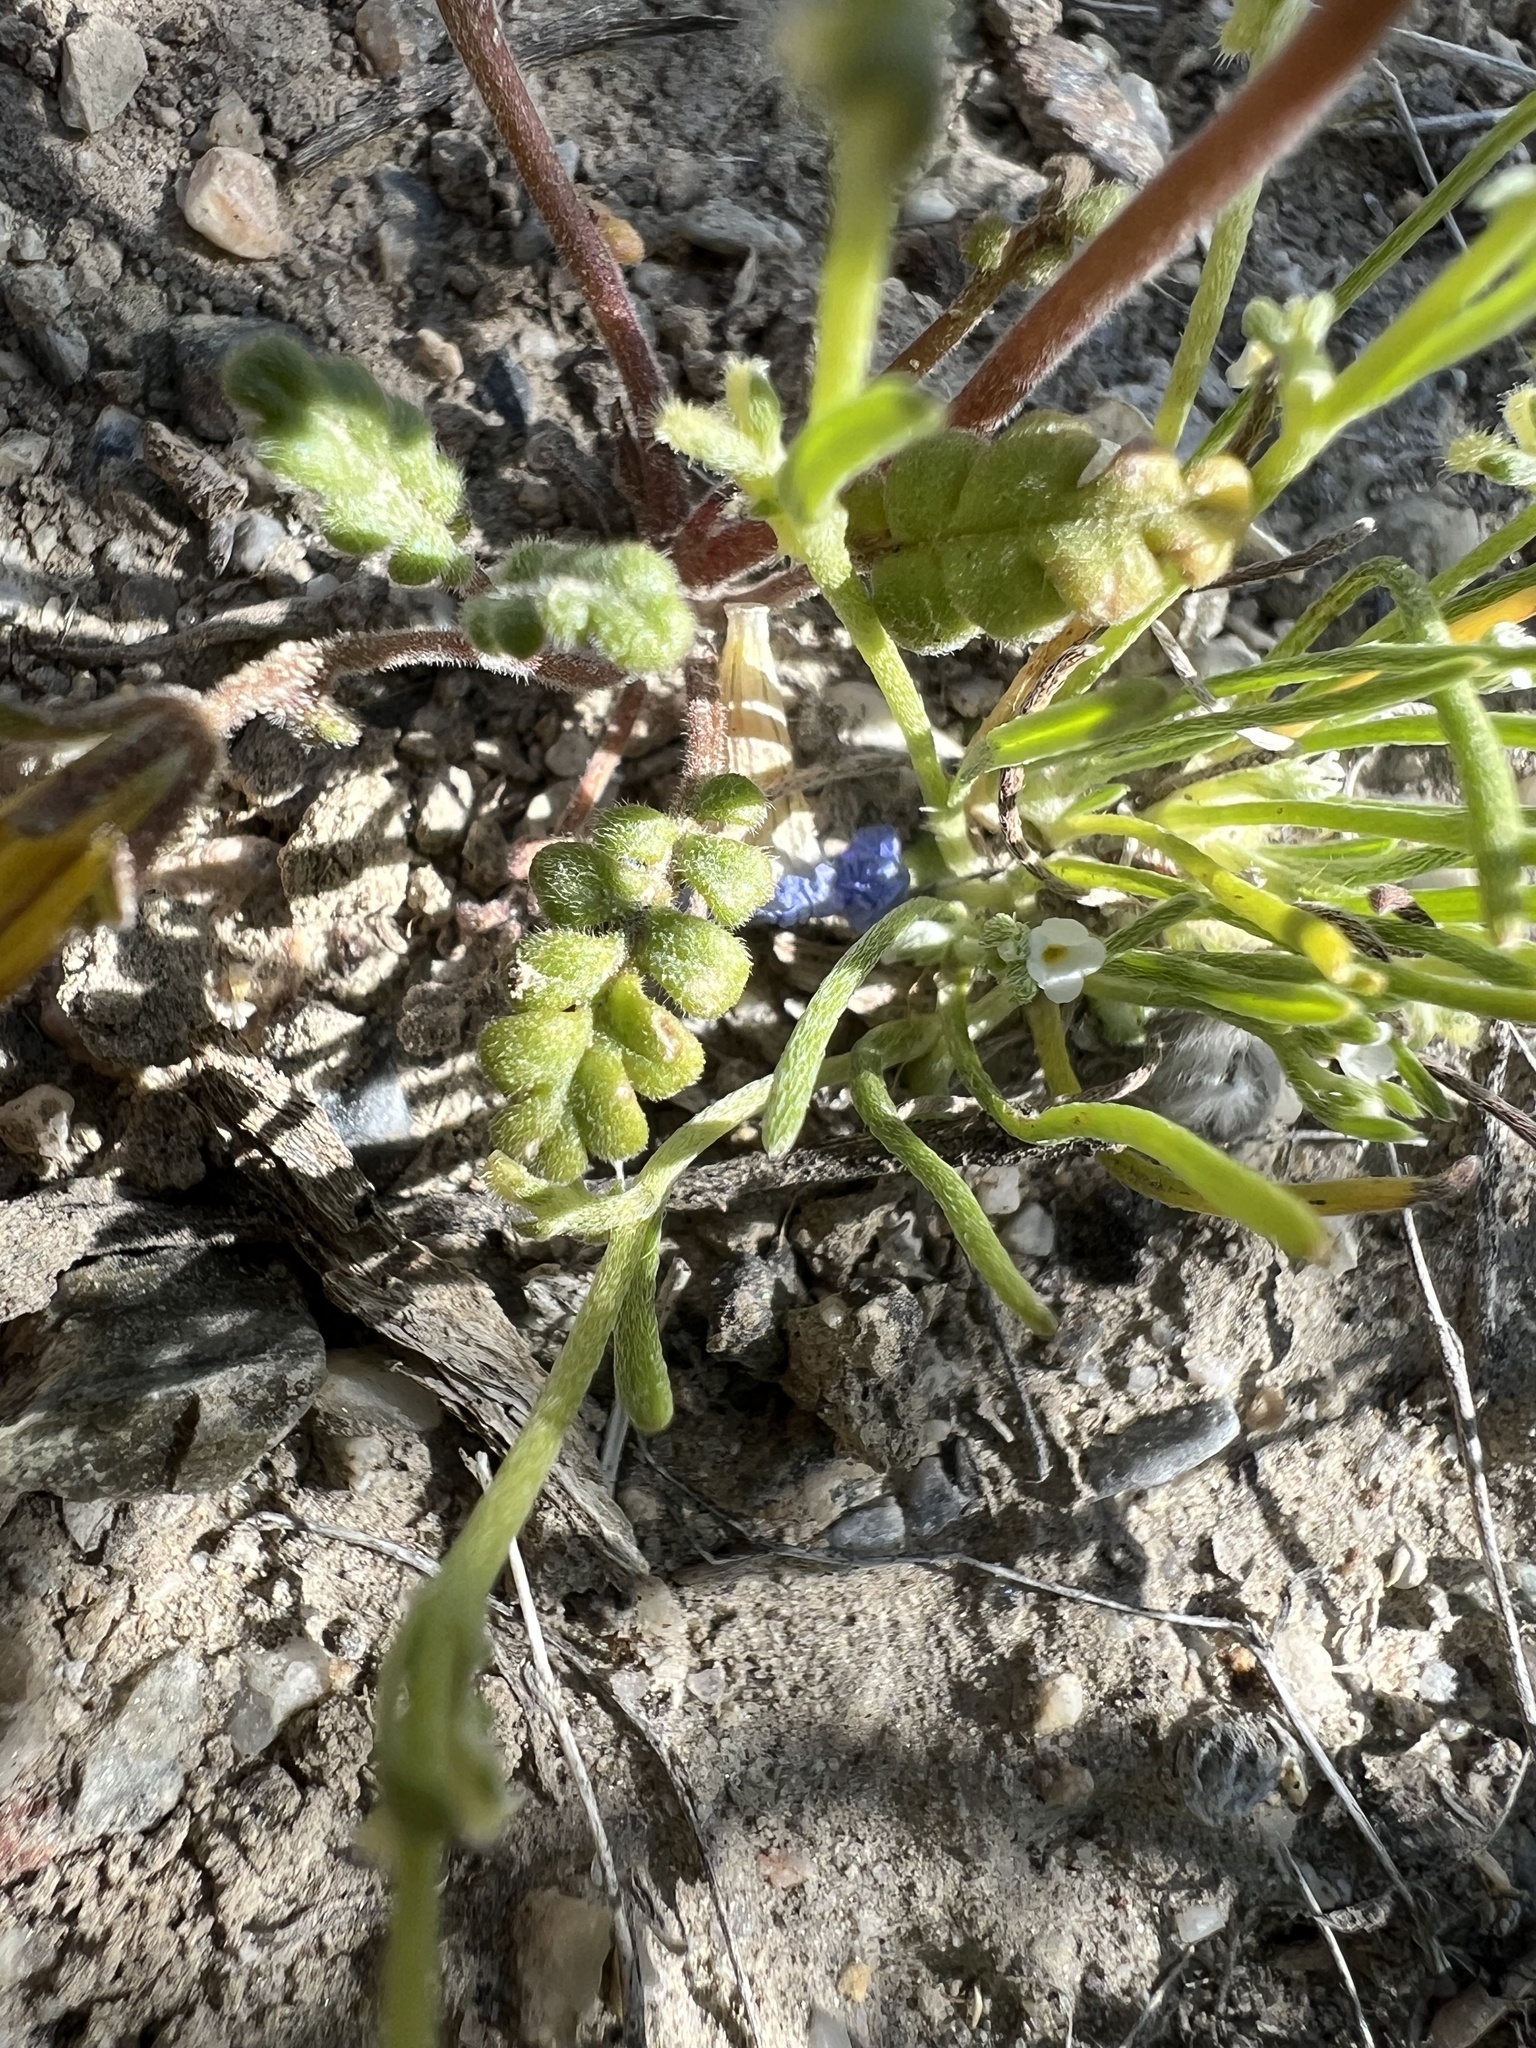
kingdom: Plantae
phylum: Tracheophyta
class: Magnoliopsida
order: Boraginales
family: Hydrophyllaceae
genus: Phacelia
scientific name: Phacelia fremontii
